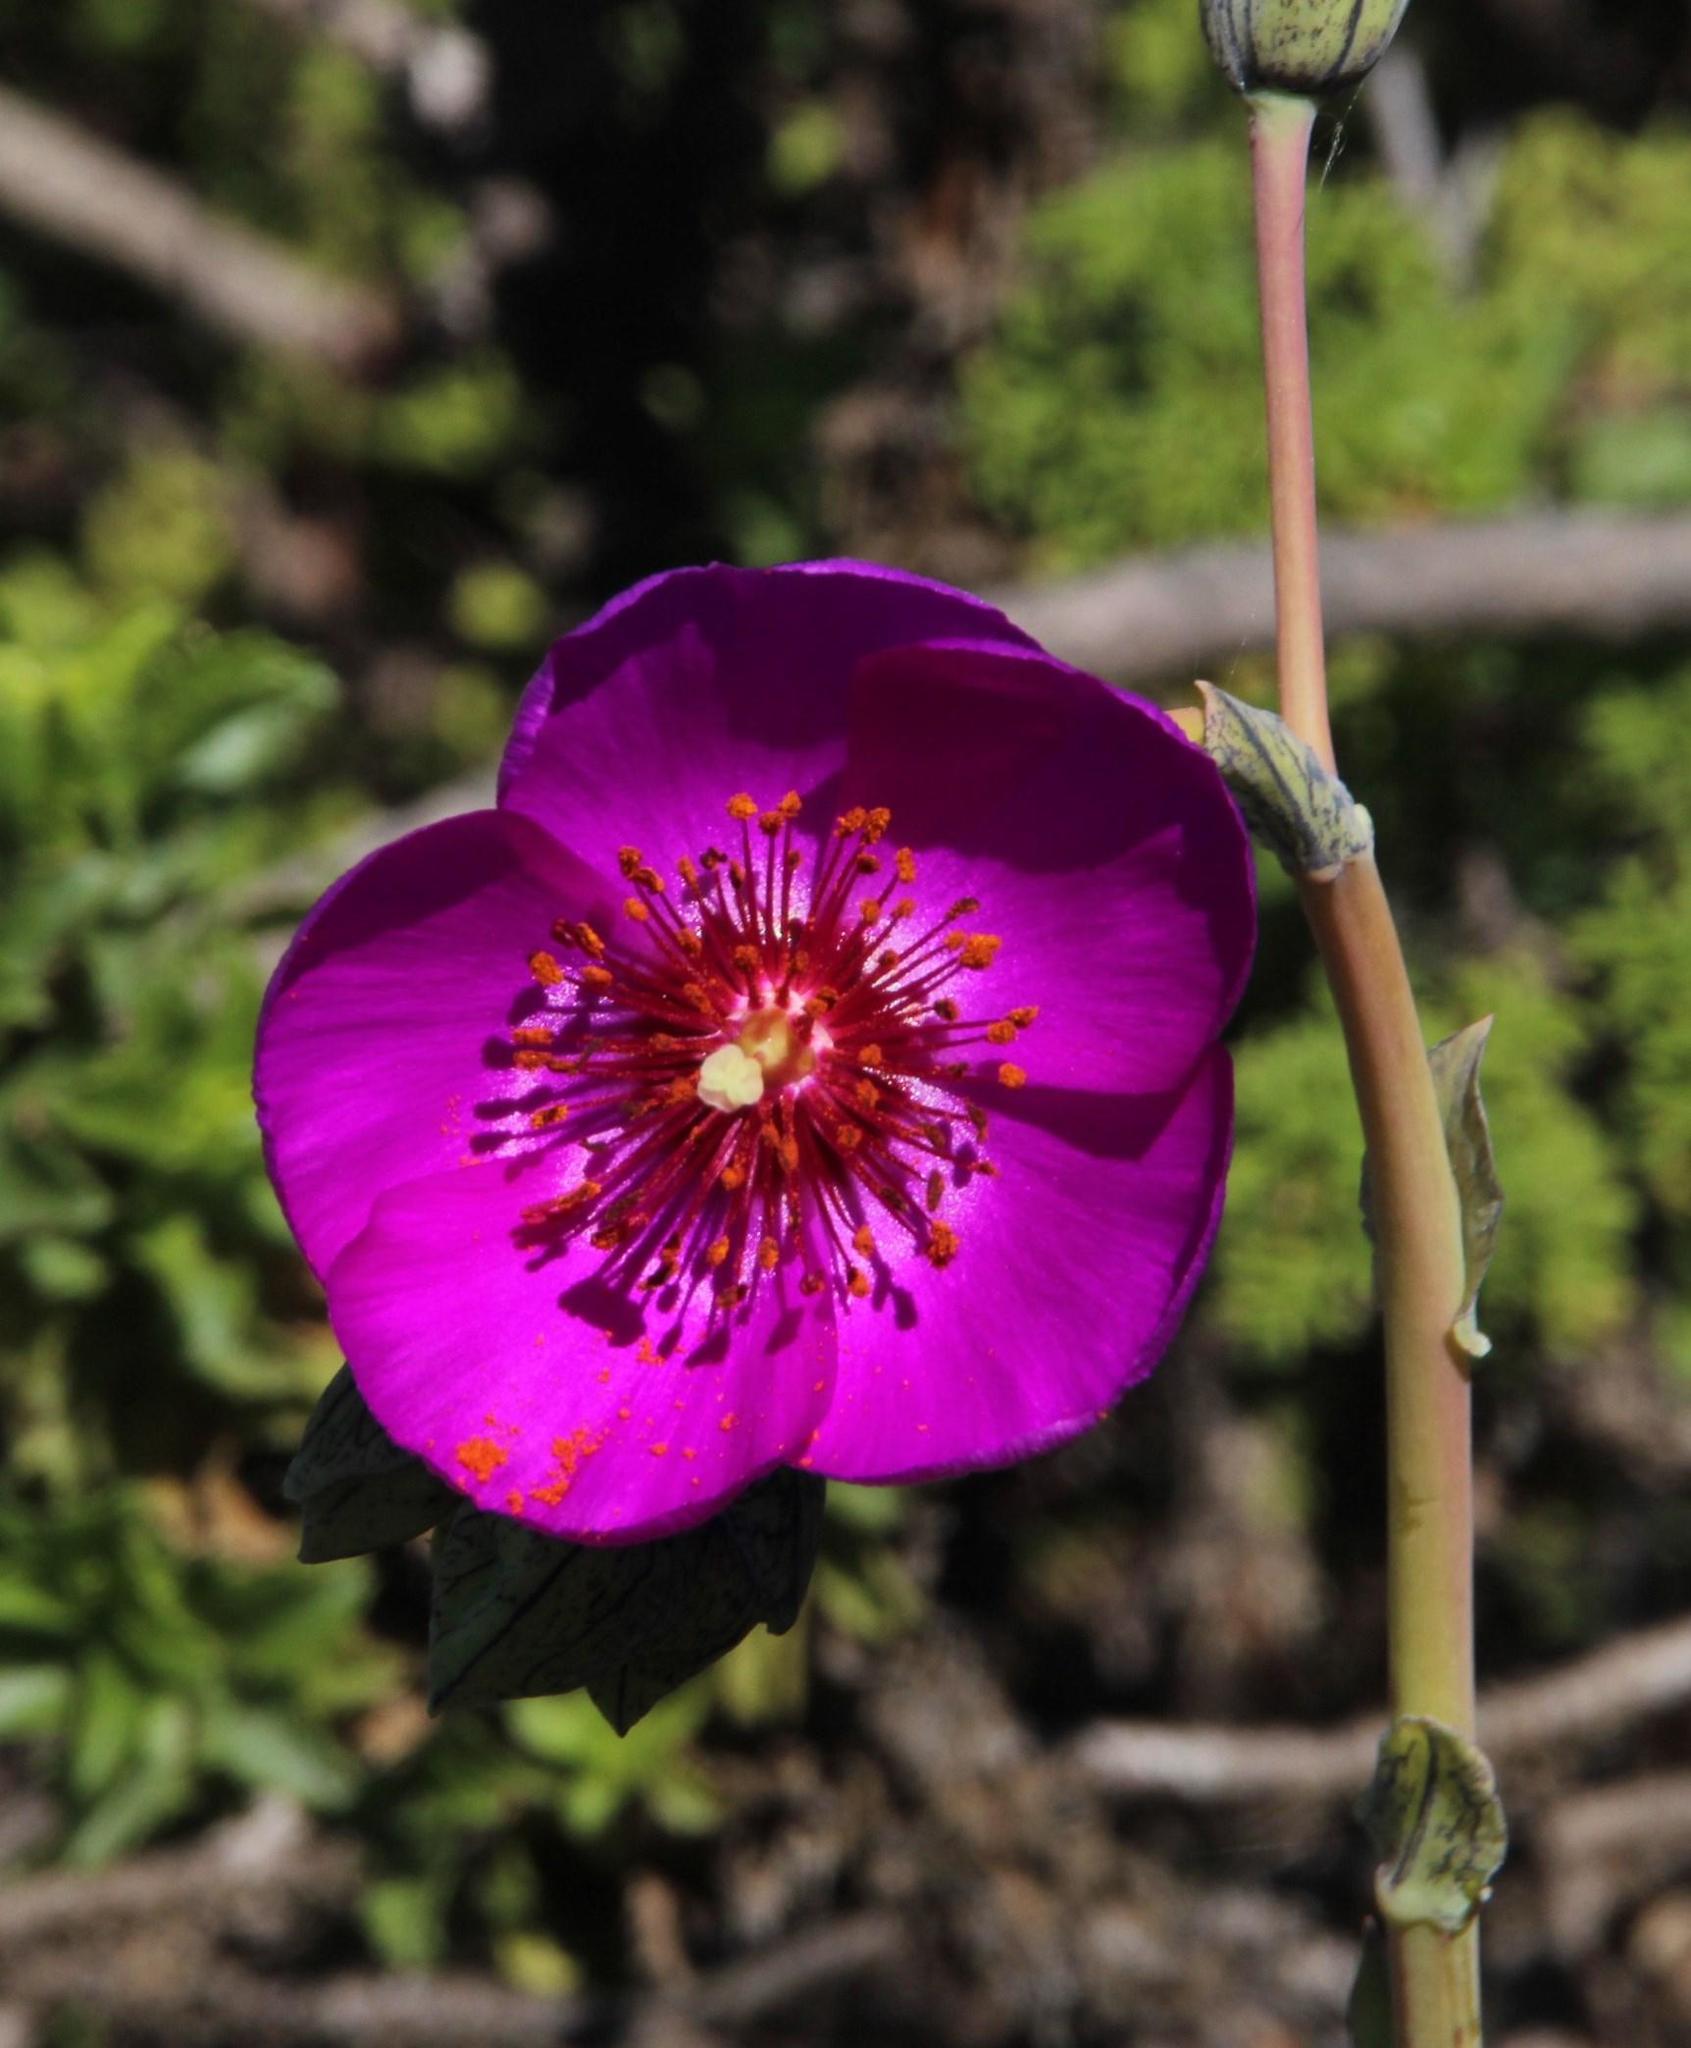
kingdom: Plantae
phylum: Tracheophyta
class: Magnoliopsida
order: Caryophyllales
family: Montiaceae
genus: Cistanthe
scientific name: Cistanthe grandiflora
